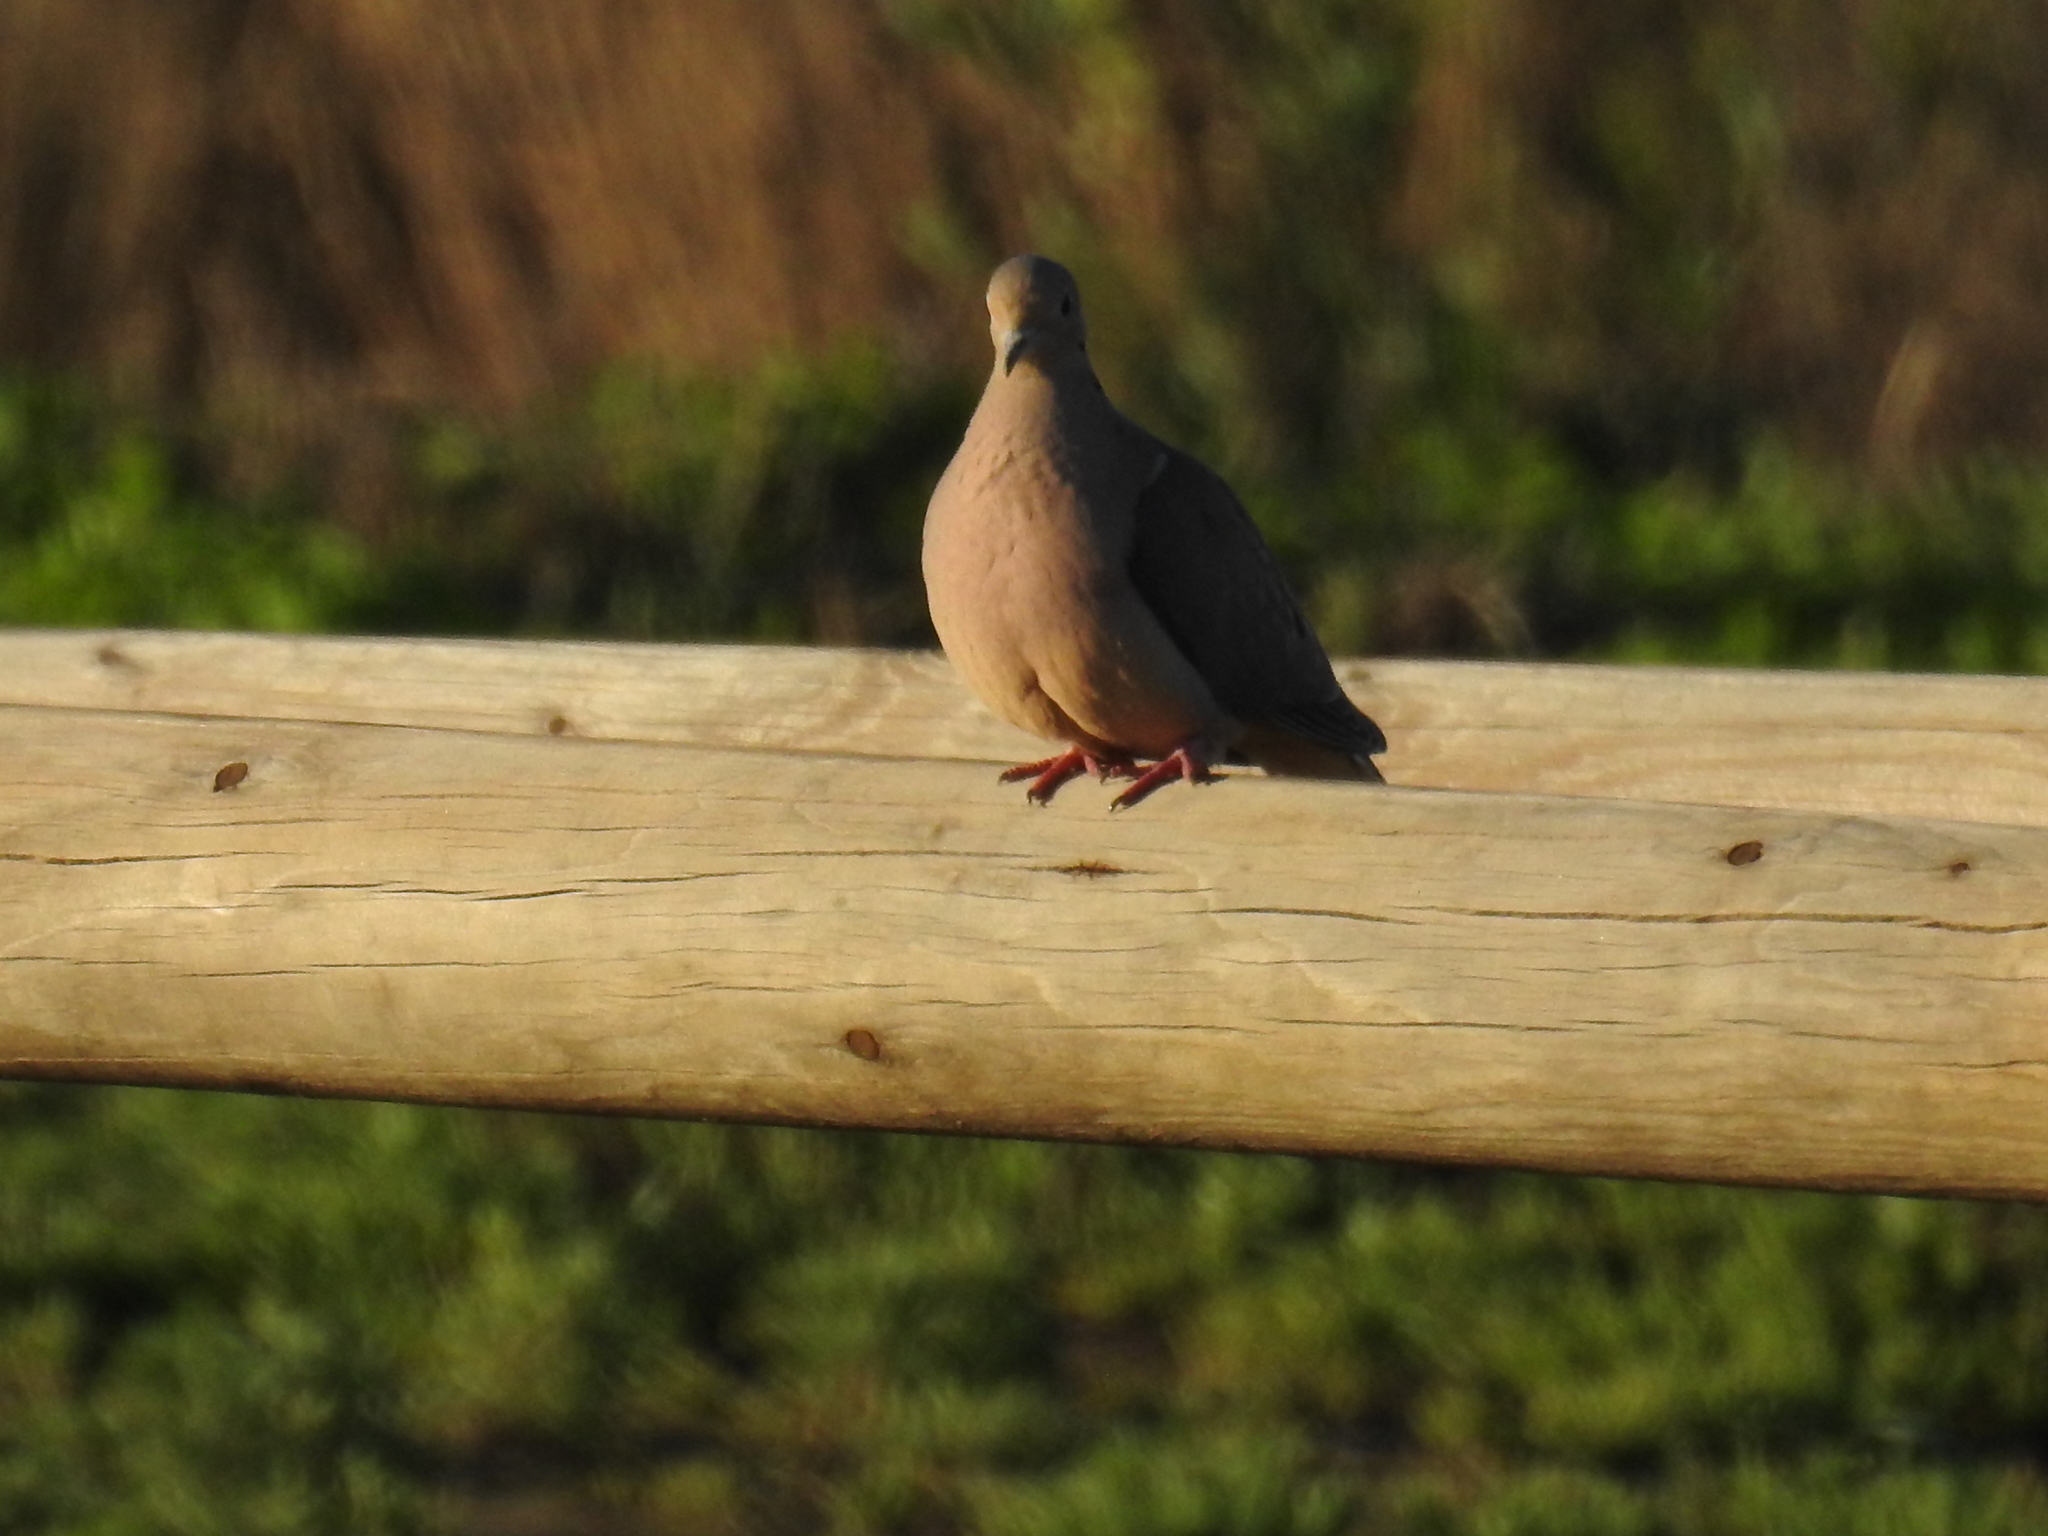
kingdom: Animalia
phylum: Chordata
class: Aves
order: Columbiformes
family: Columbidae
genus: Zenaida
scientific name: Zenaida macroura
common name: Mourning dove
